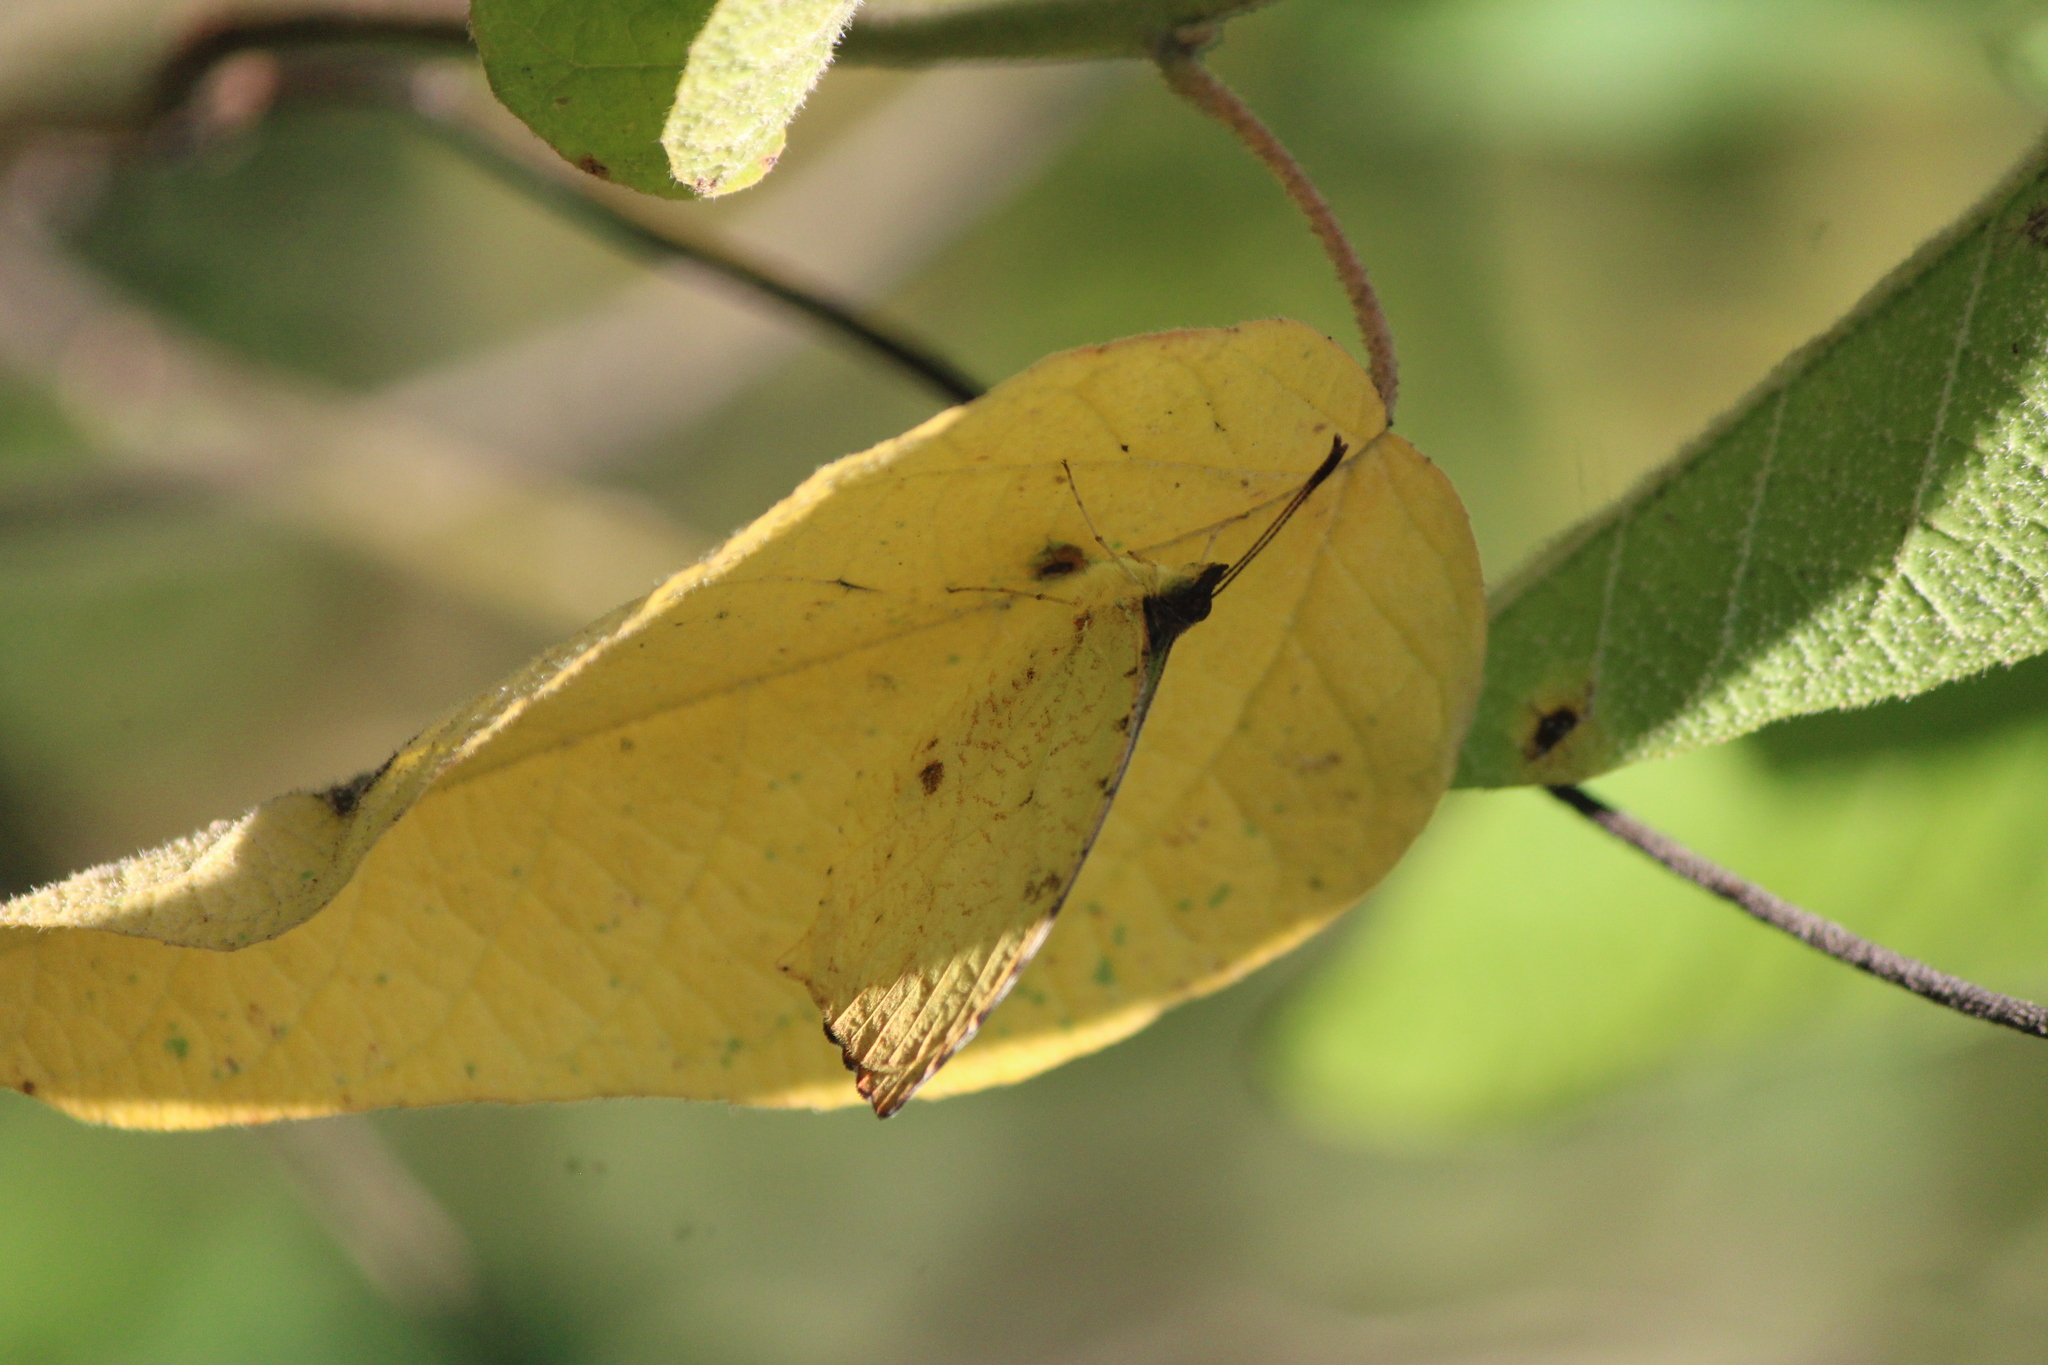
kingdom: Animalia
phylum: Arthropoda
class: Insecta
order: Lepidoptera
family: Pieridae
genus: Abaeis
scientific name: Abaeis salome
